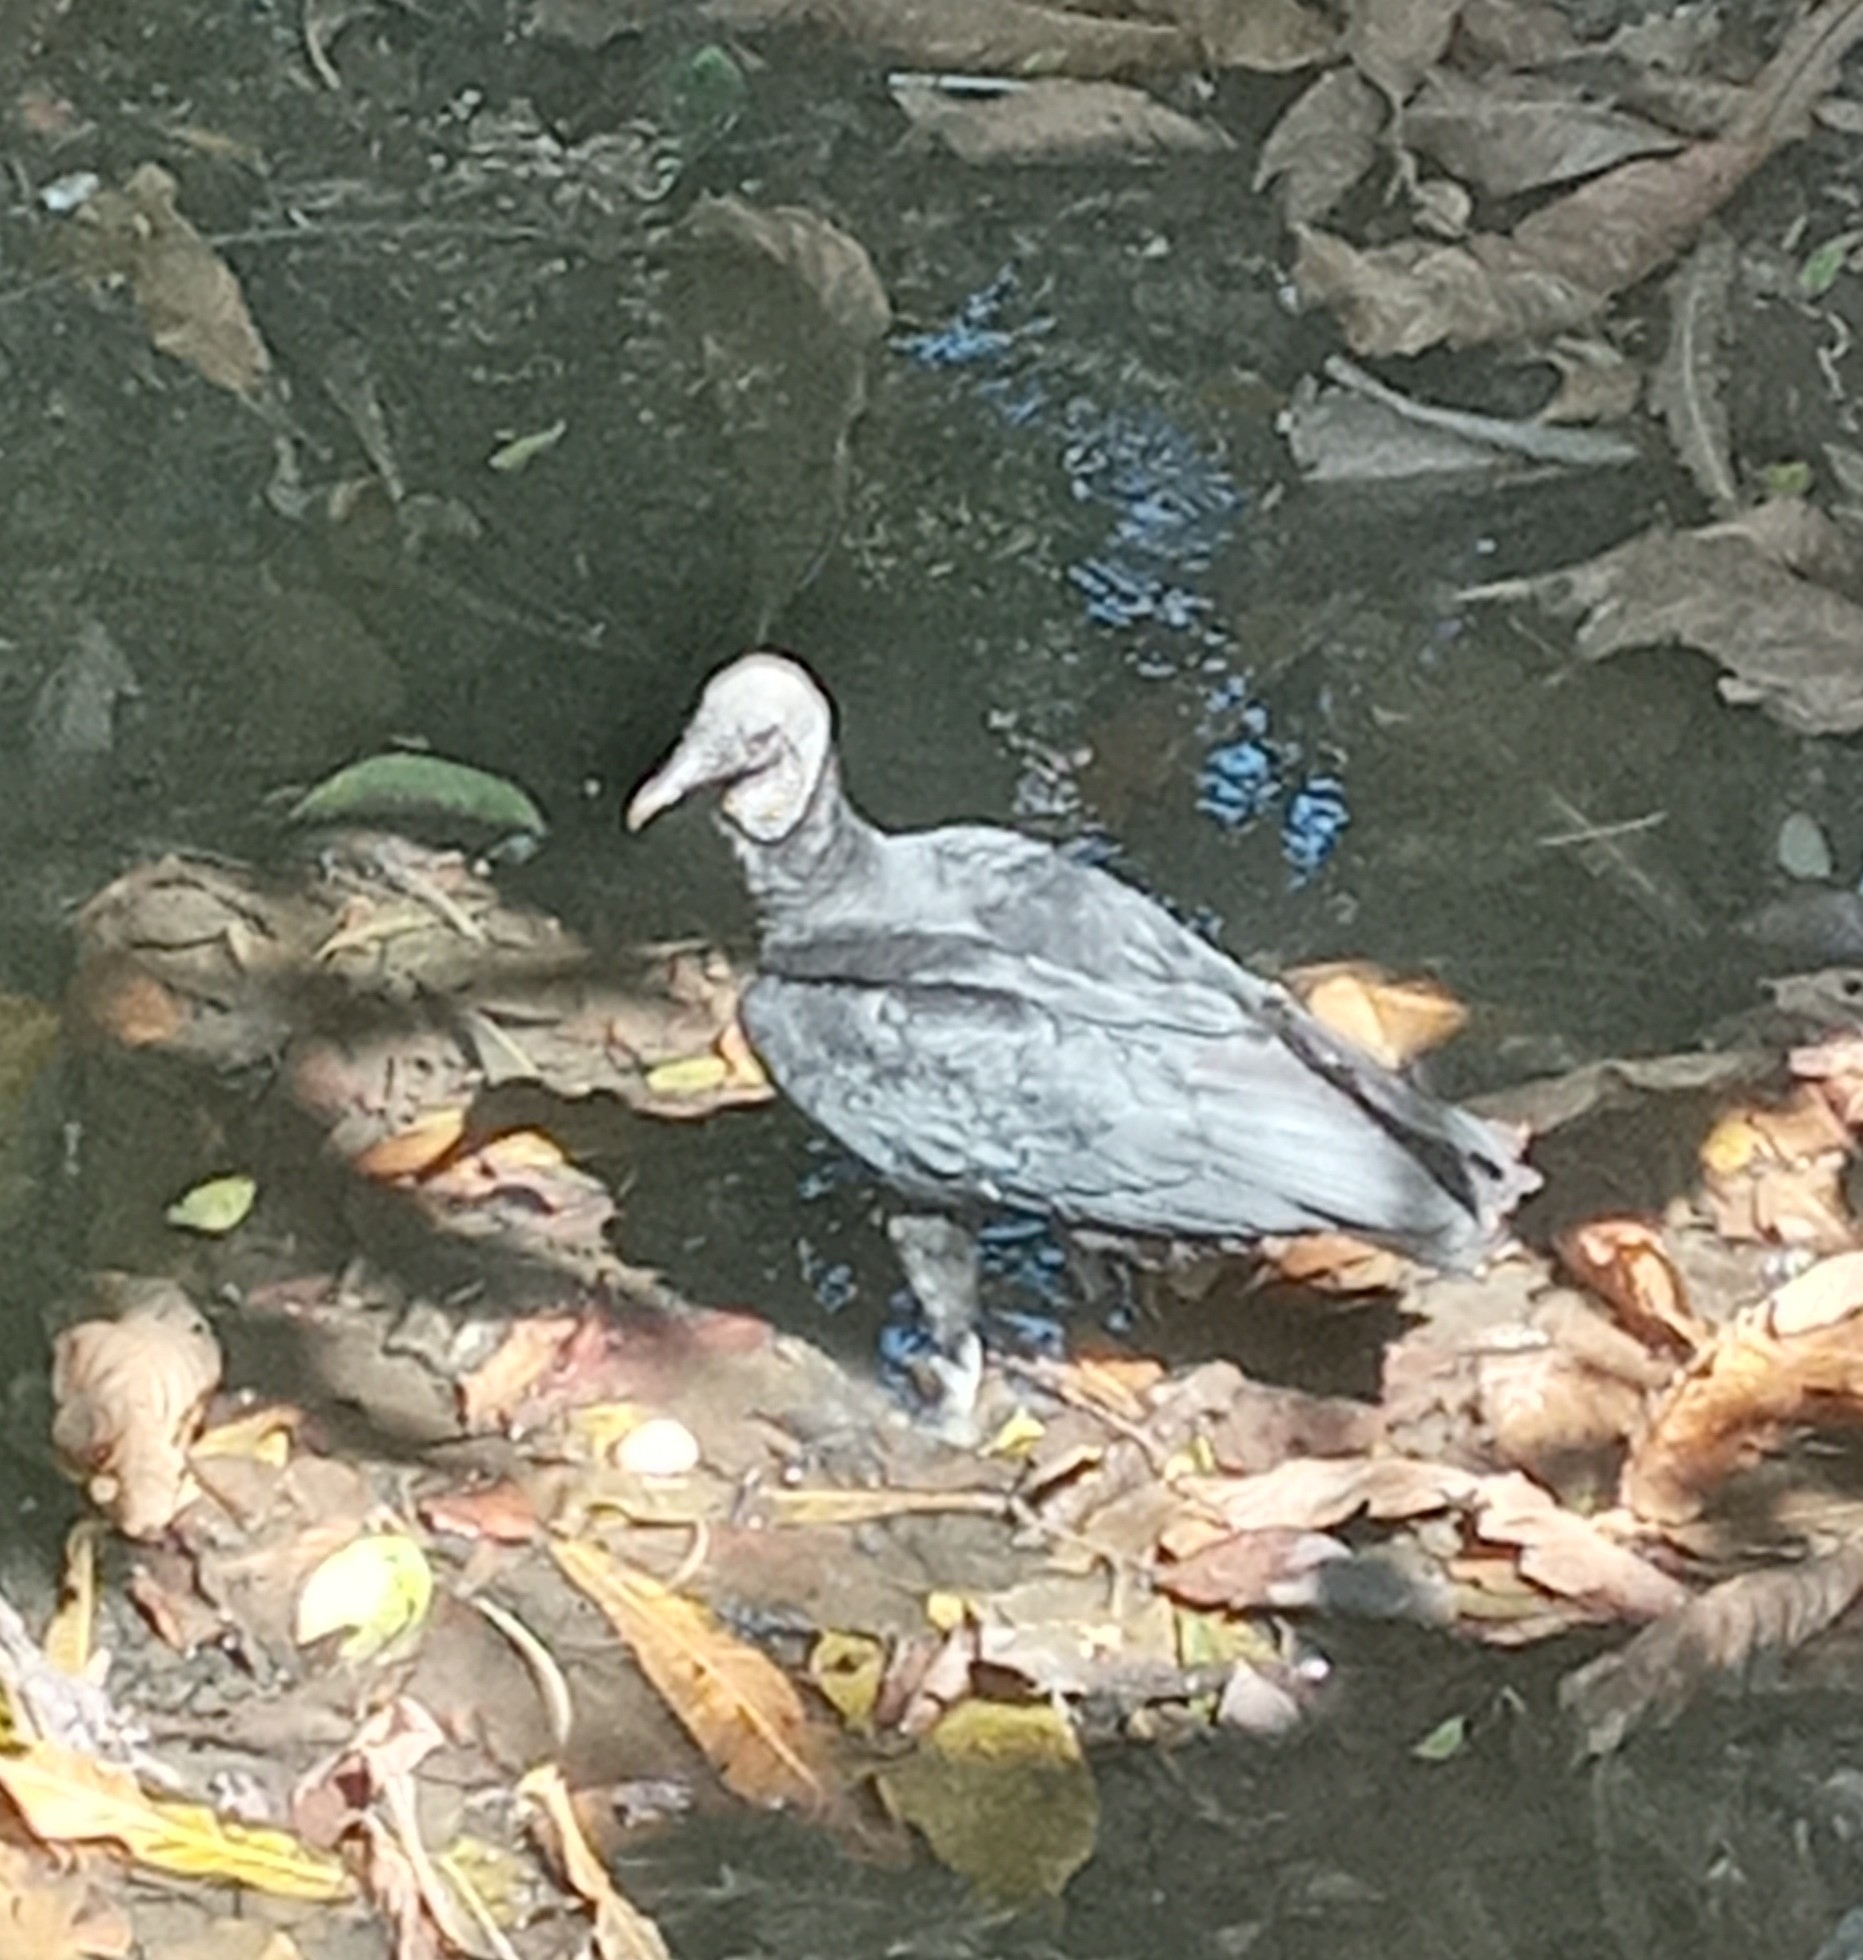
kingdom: Animalia
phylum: Chordata
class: Aves
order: Accipitriformes
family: Cathartidae
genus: Coragyps
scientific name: Coragyps atratus
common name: Black vulture
